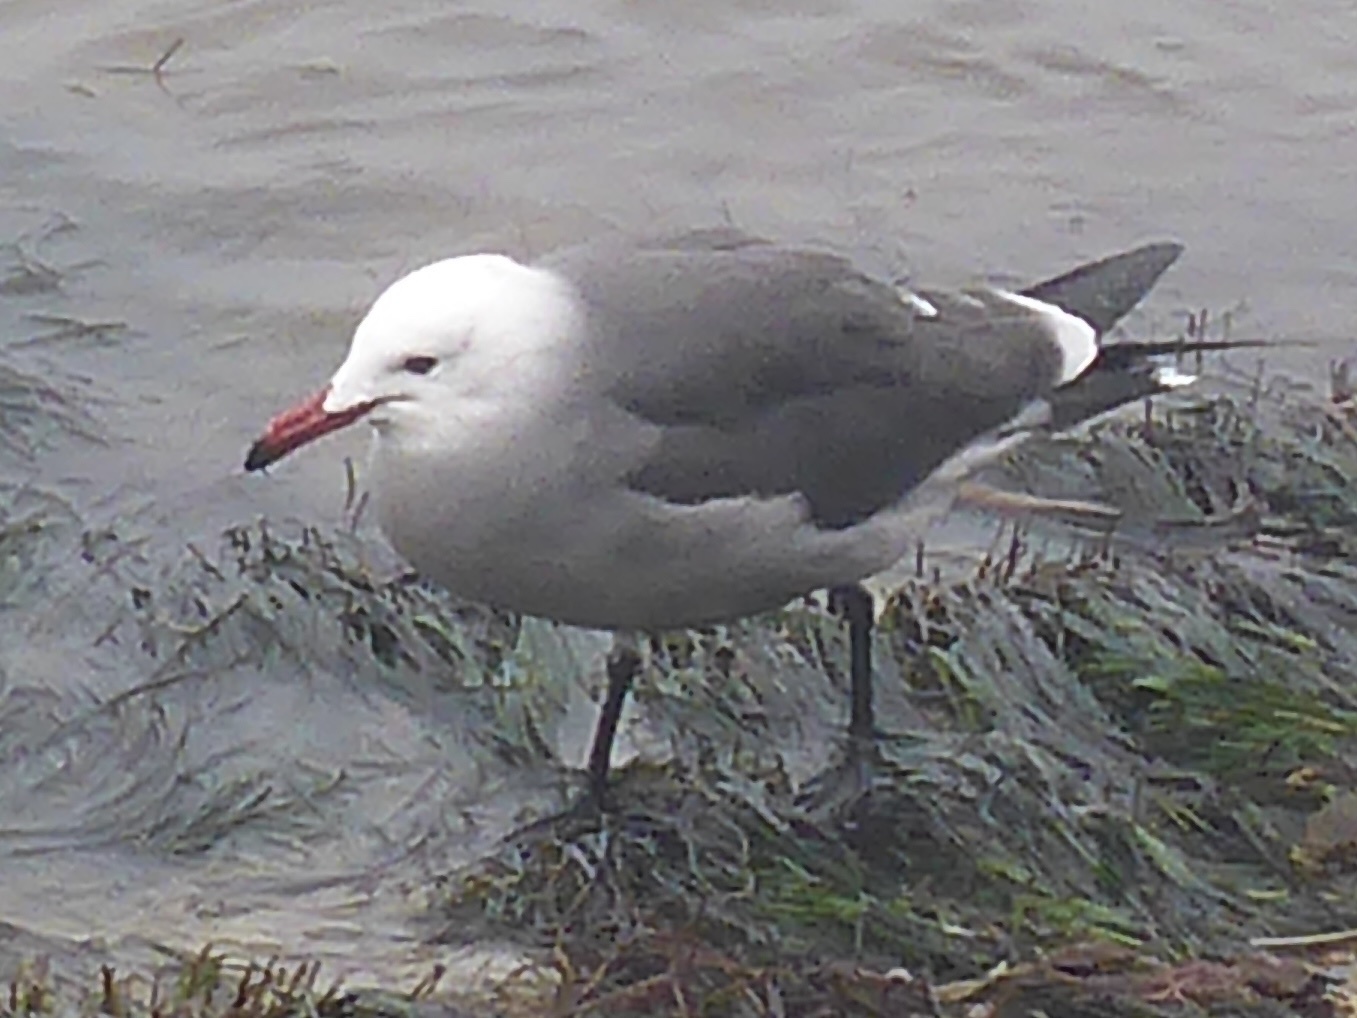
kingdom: Animalia
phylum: Chordata
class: Aves
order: Charadriiformes
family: Laridae
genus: Larus
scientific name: Larus heermanni
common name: Heermann's gull
